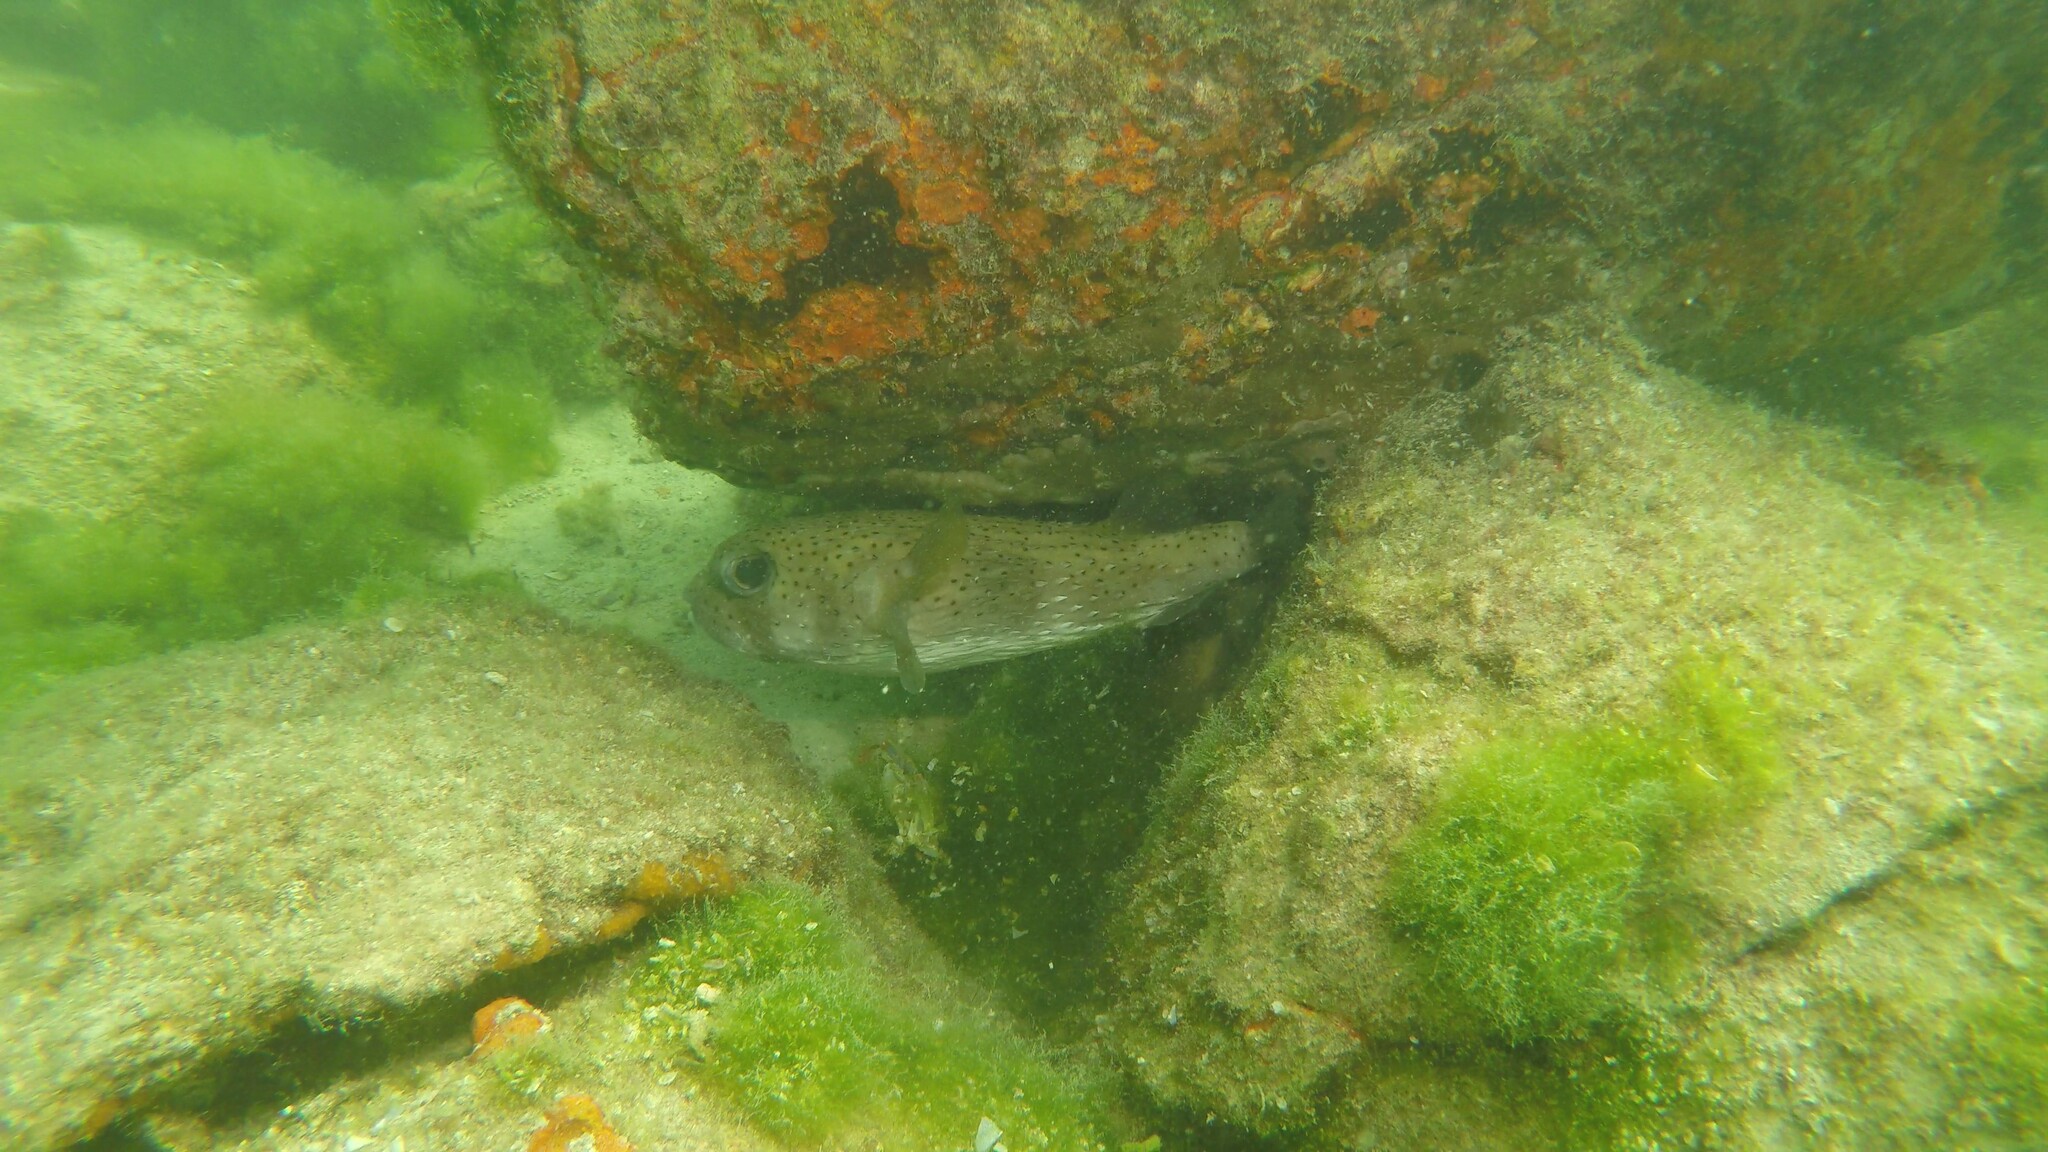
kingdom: Animalia
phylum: Chordata
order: Tetraodontiformes
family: Diodontidae
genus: Diodon
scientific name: Diodon hystrix
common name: Giant porcupinefish
